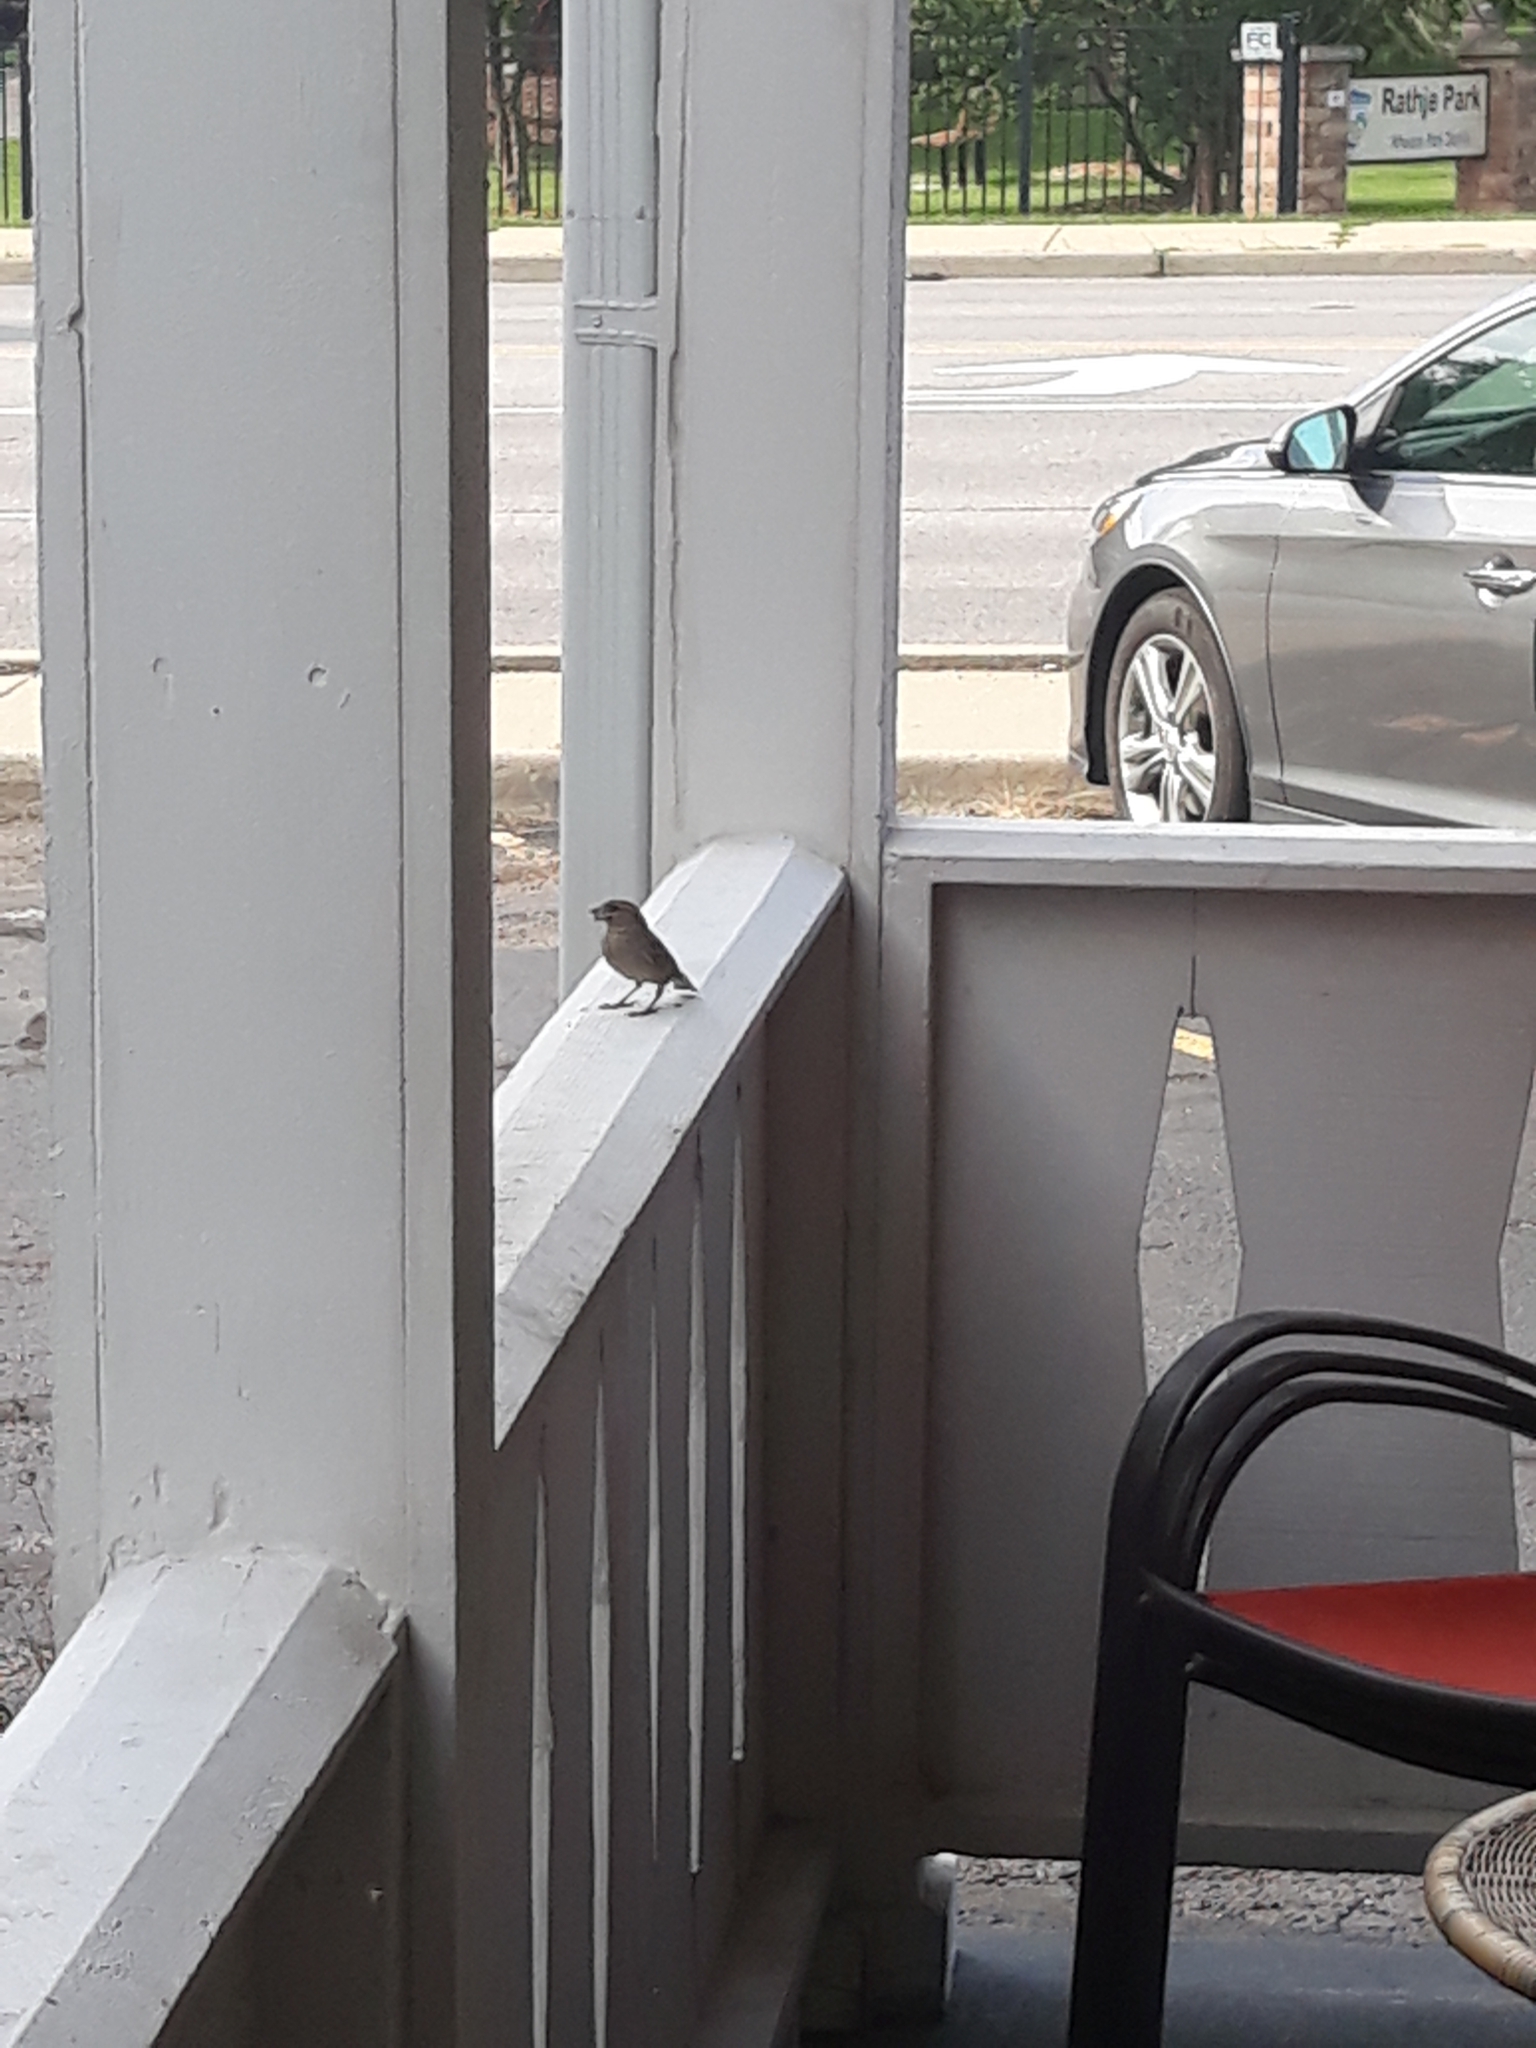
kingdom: Animalia
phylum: Chordata
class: Aves
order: Passeriformes
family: Passeridae
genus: Passer
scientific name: Passer domesticus
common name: House sparrow
